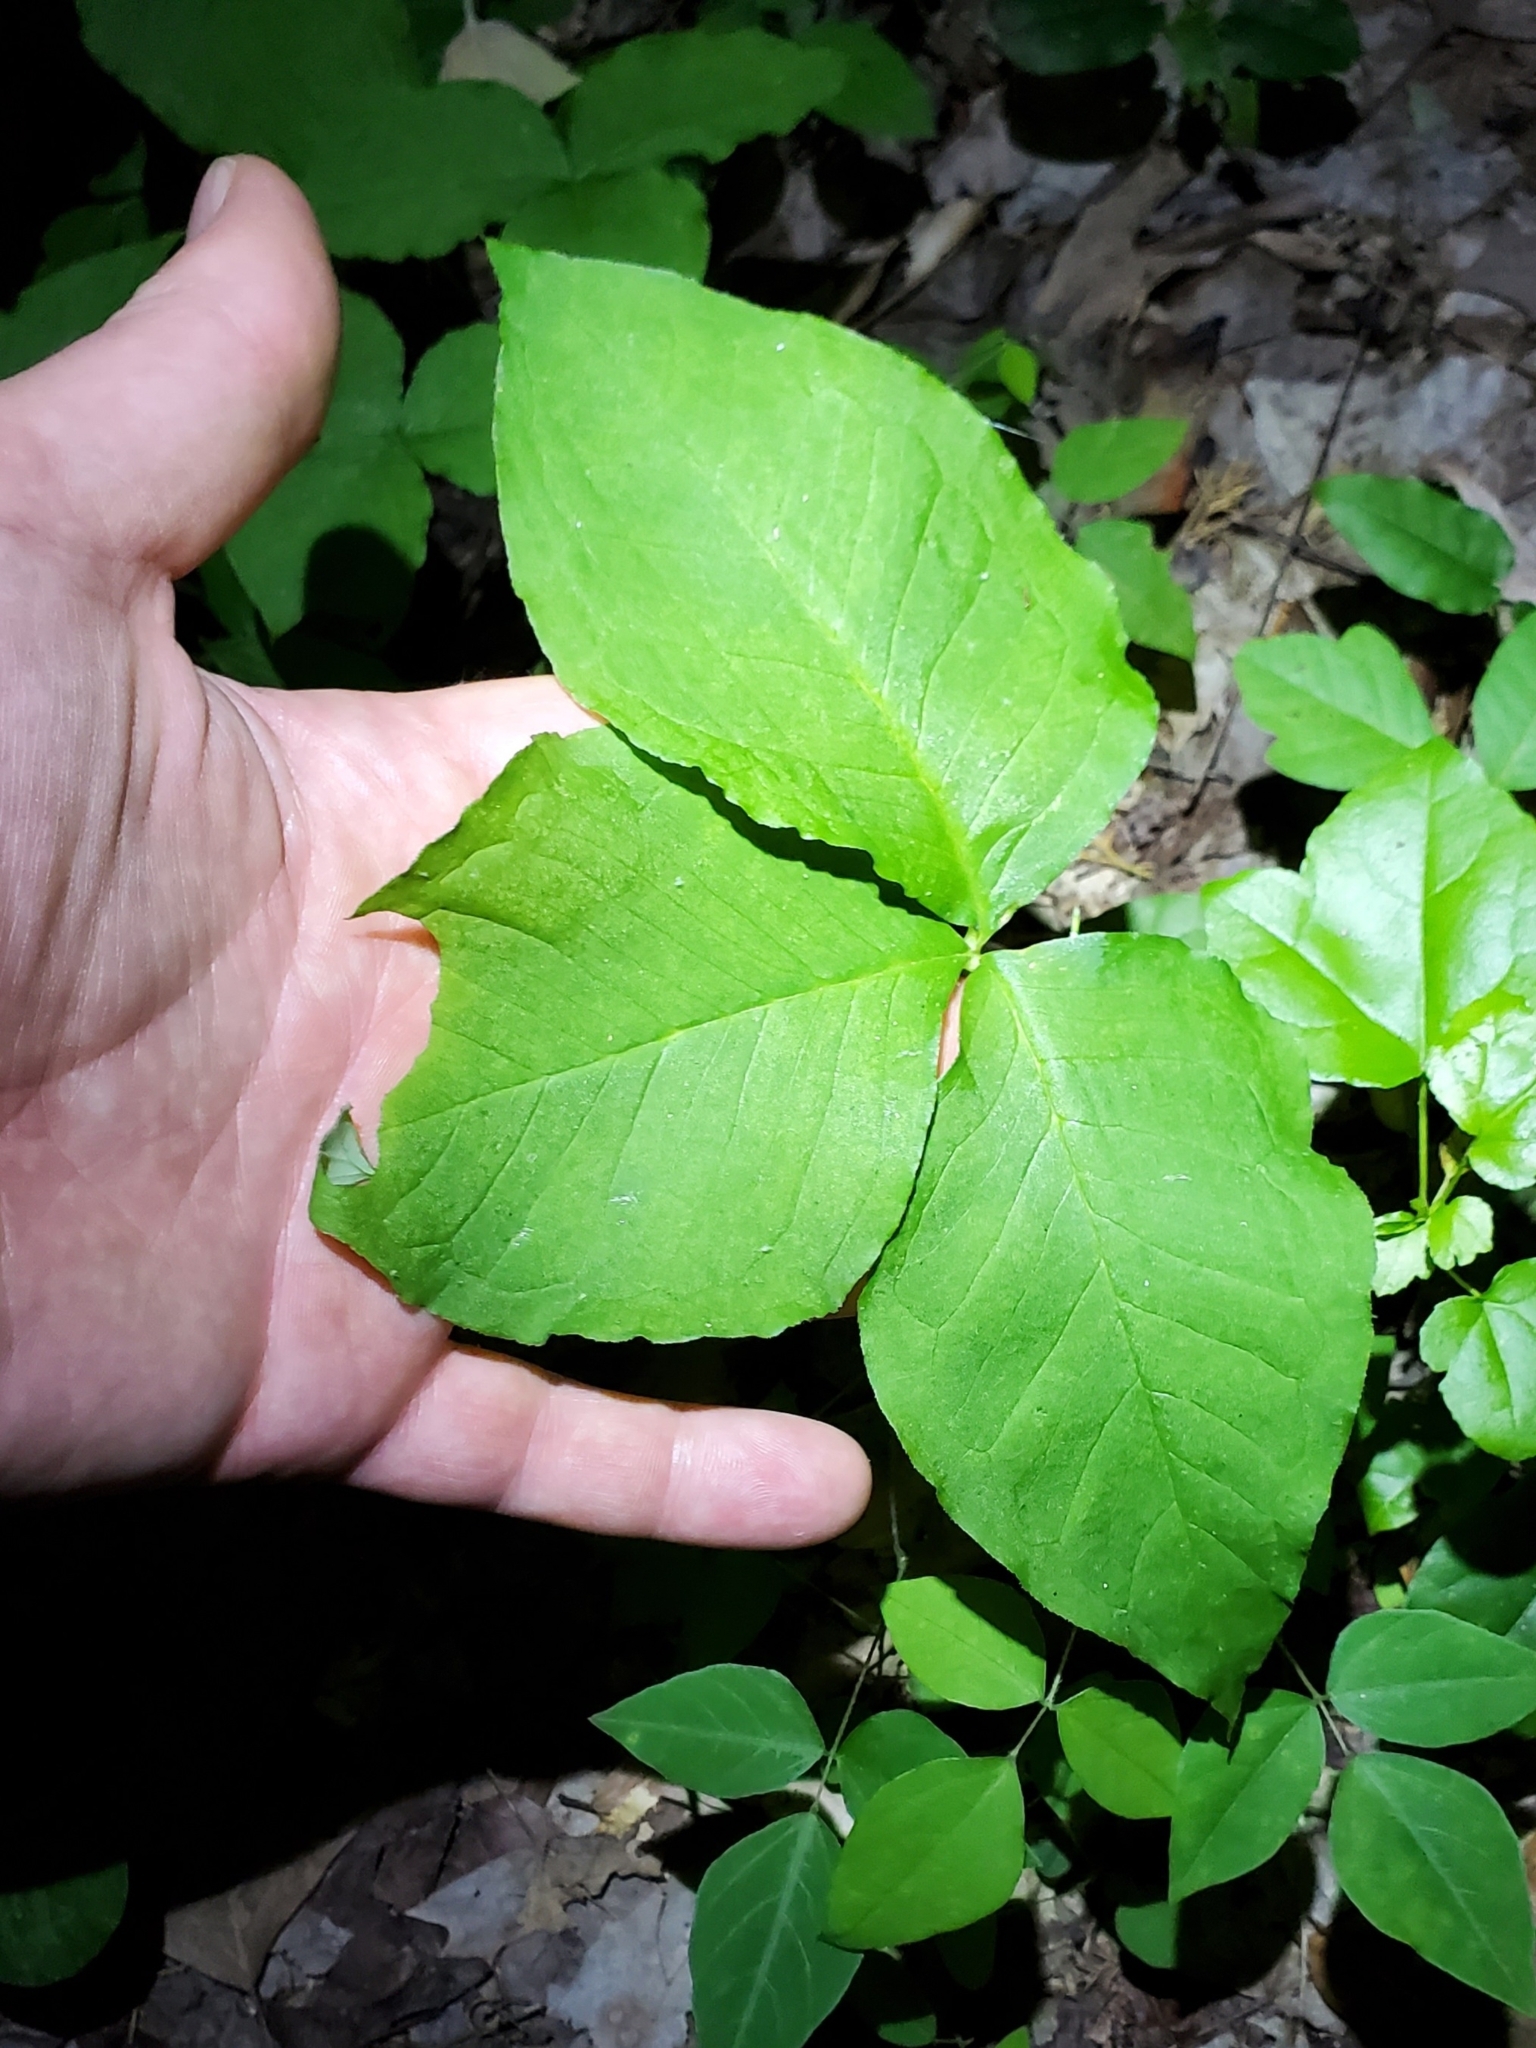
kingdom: Plantae
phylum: Tracheophyta
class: Liliopsida
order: Alismatales
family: Araceae
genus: Arisaema
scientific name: Arisaema triphyllum
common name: Jack-in-the-pulpit
